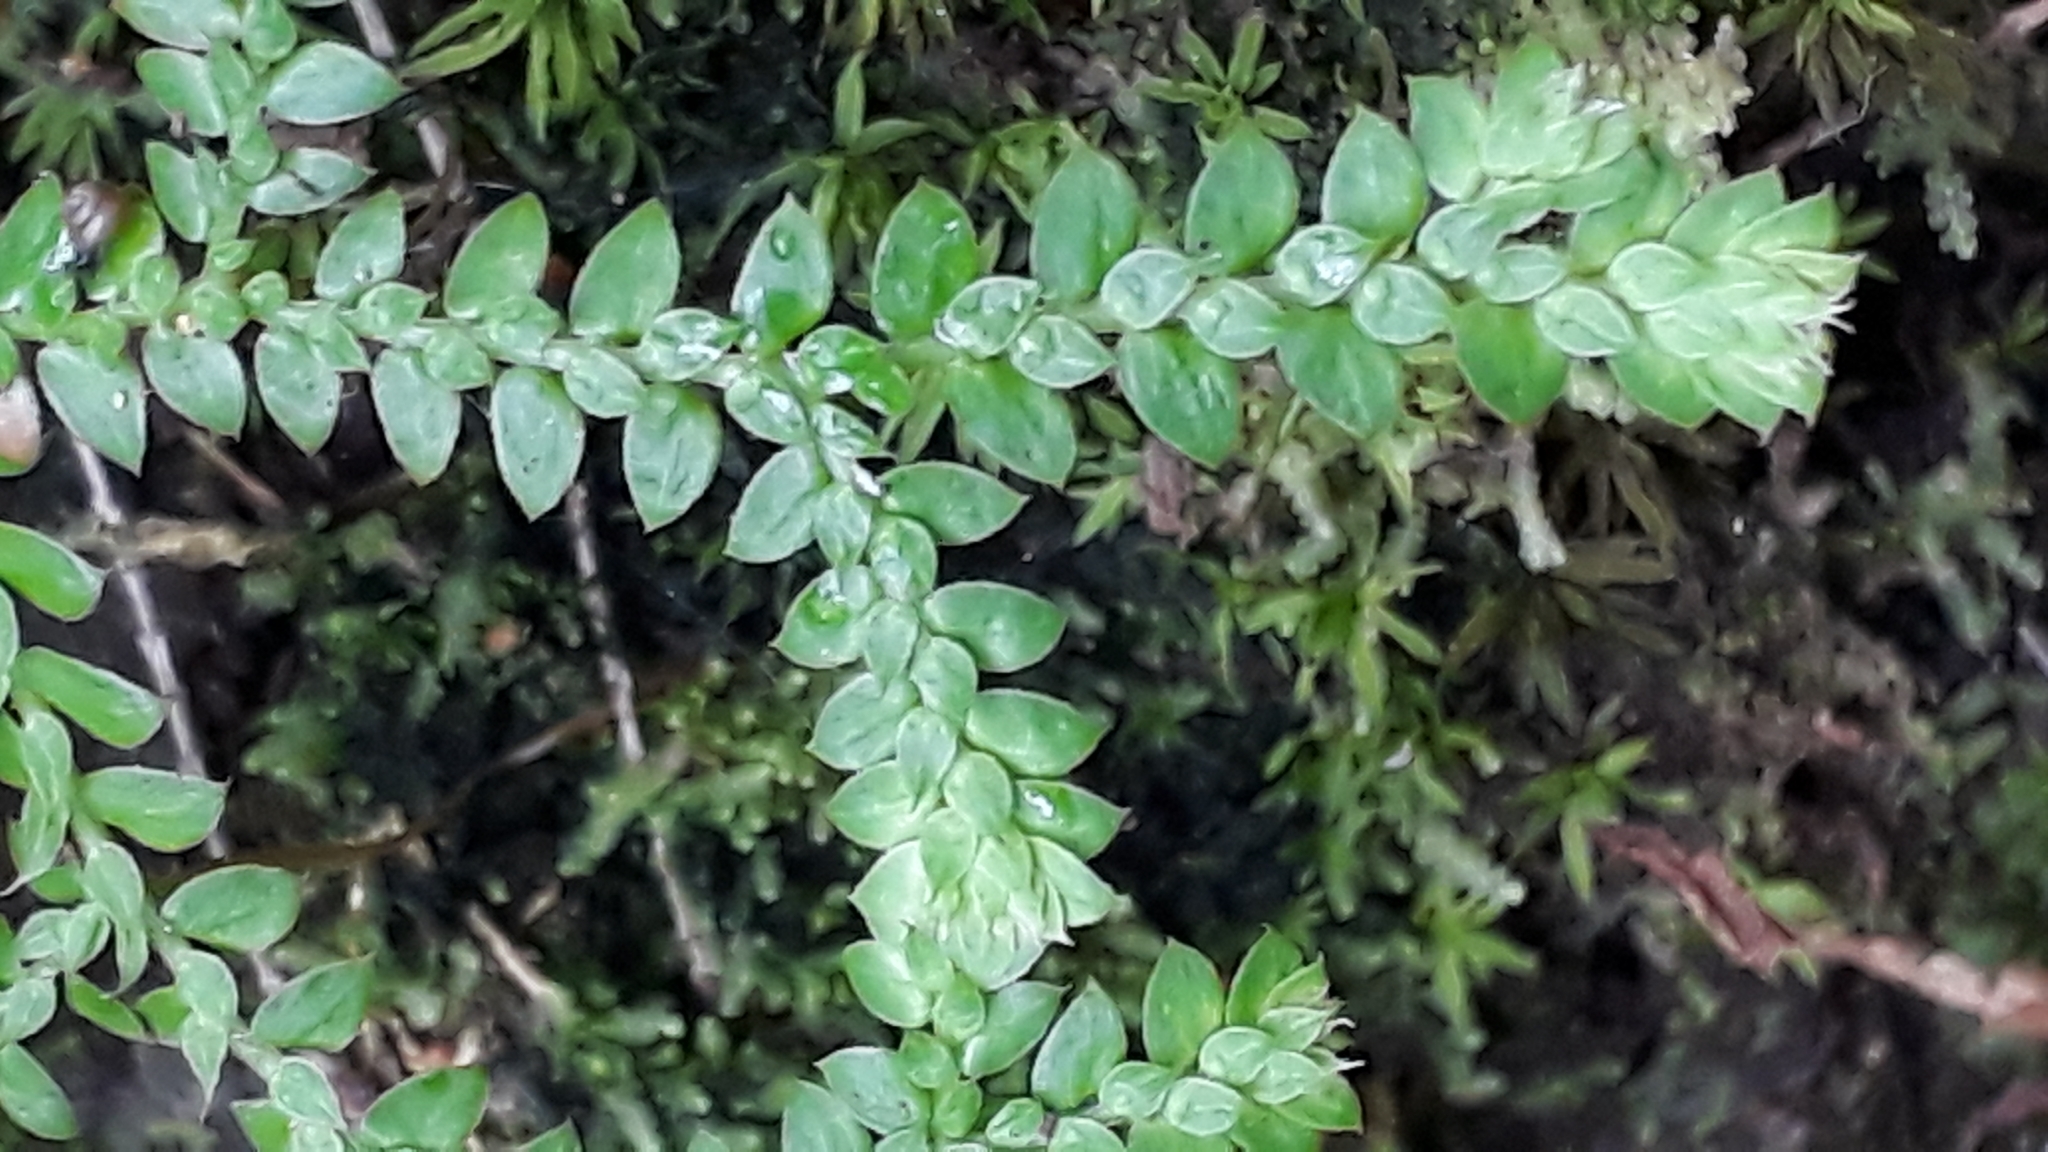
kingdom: Plantae
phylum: Tracheophyta
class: Lycopodiopsida
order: Selaginellales
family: Selaginellaceae
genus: Selaginella
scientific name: Selaginella denticulata
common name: Toothed-leaved clubmoss
